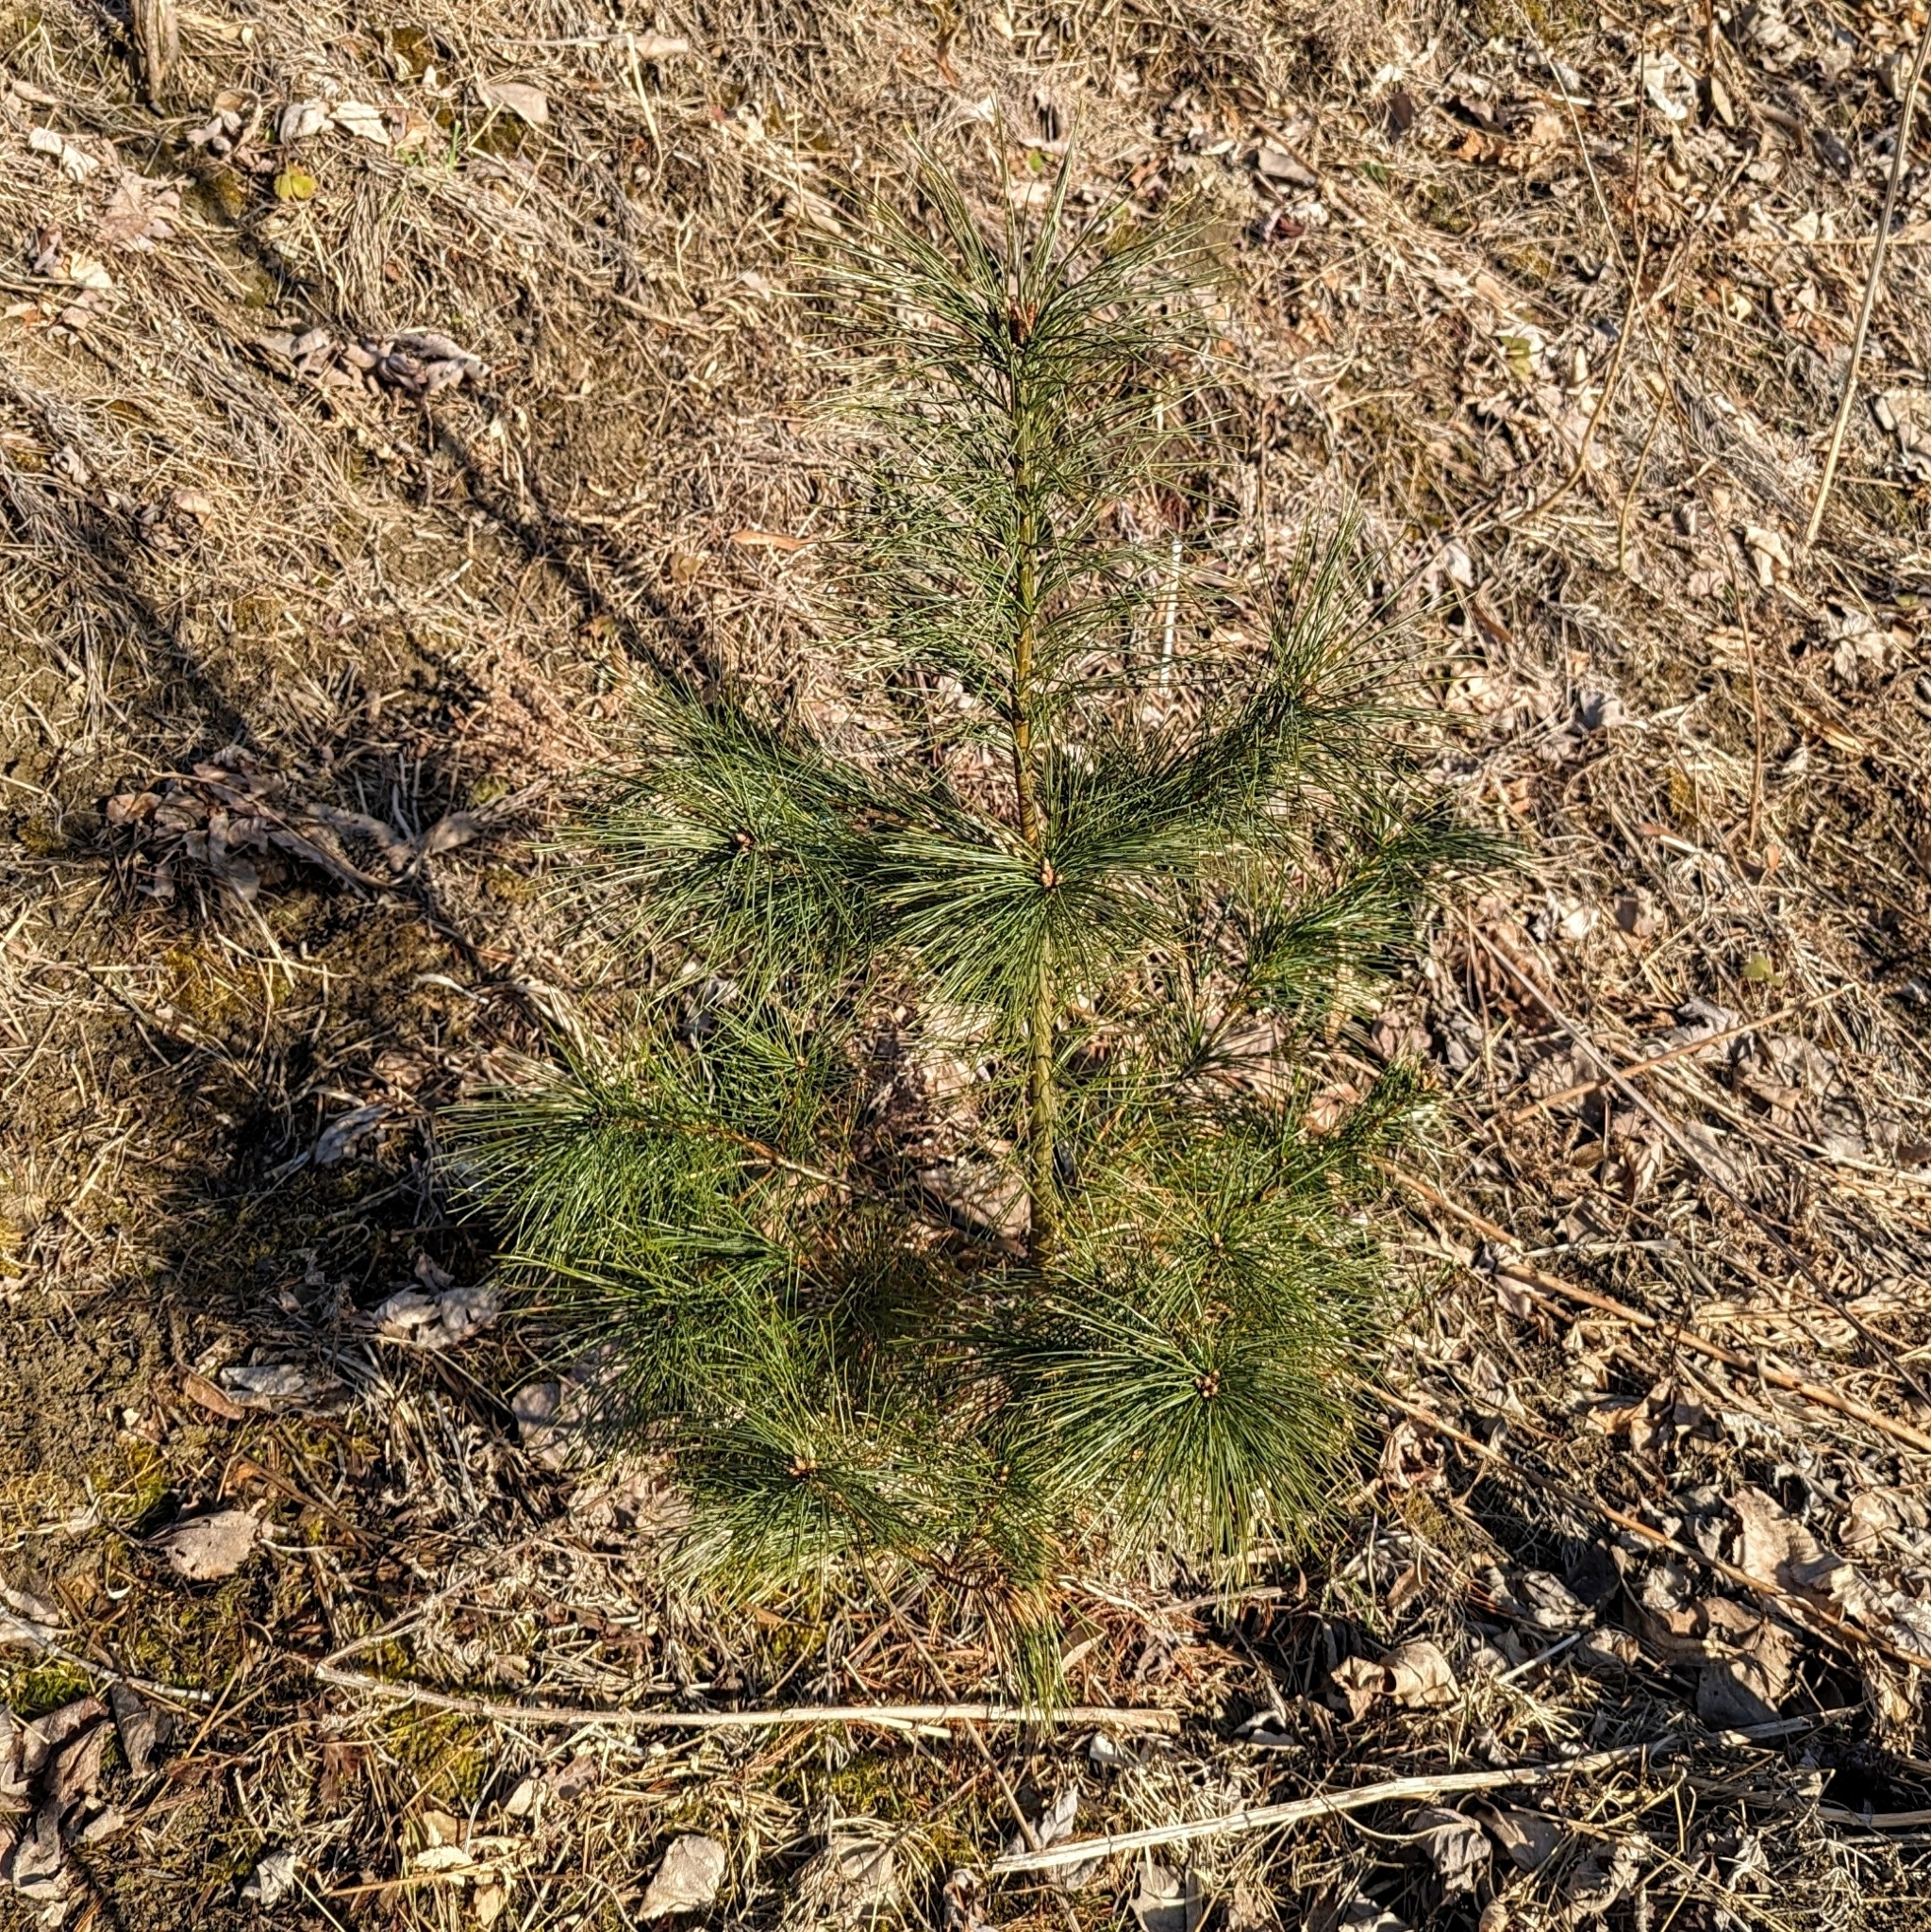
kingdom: Plantae
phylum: Tracheophyta
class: Pinopsida
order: Pinales
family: Pinaceae
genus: Pinus
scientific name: Pinus strobus
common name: Weymouth pine
